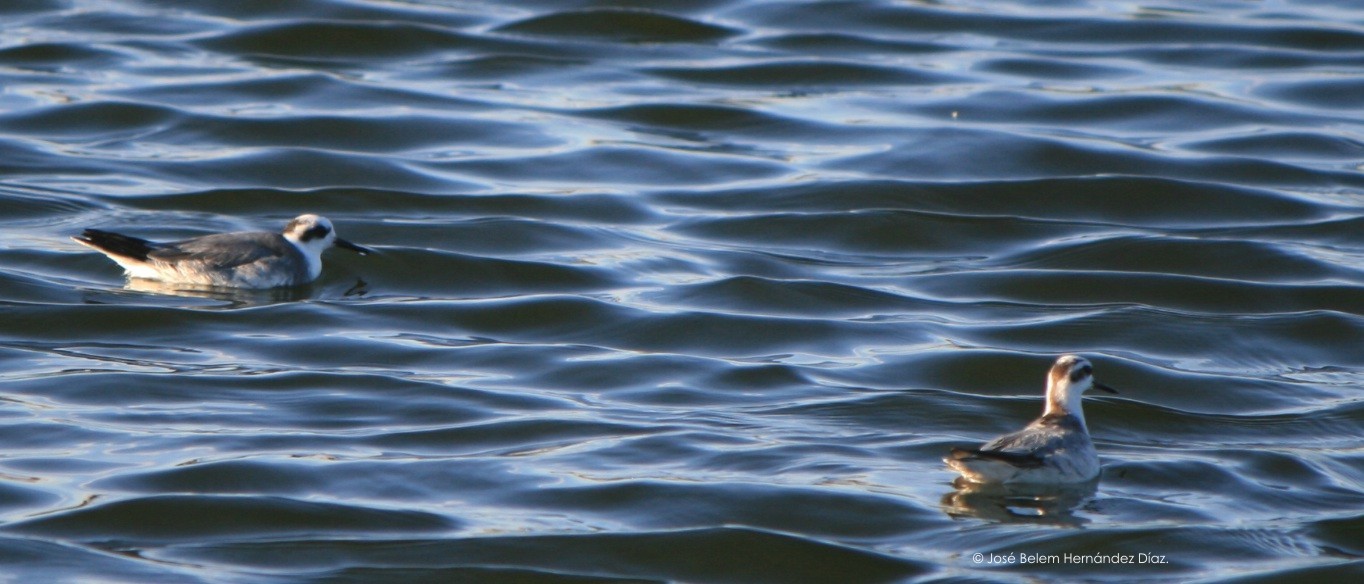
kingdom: Animalia
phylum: Chordata
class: Aves
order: Charadriiformes
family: Scolopacidae
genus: Phalaropus
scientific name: Phalaropus fulicarius
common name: Red phalarope
